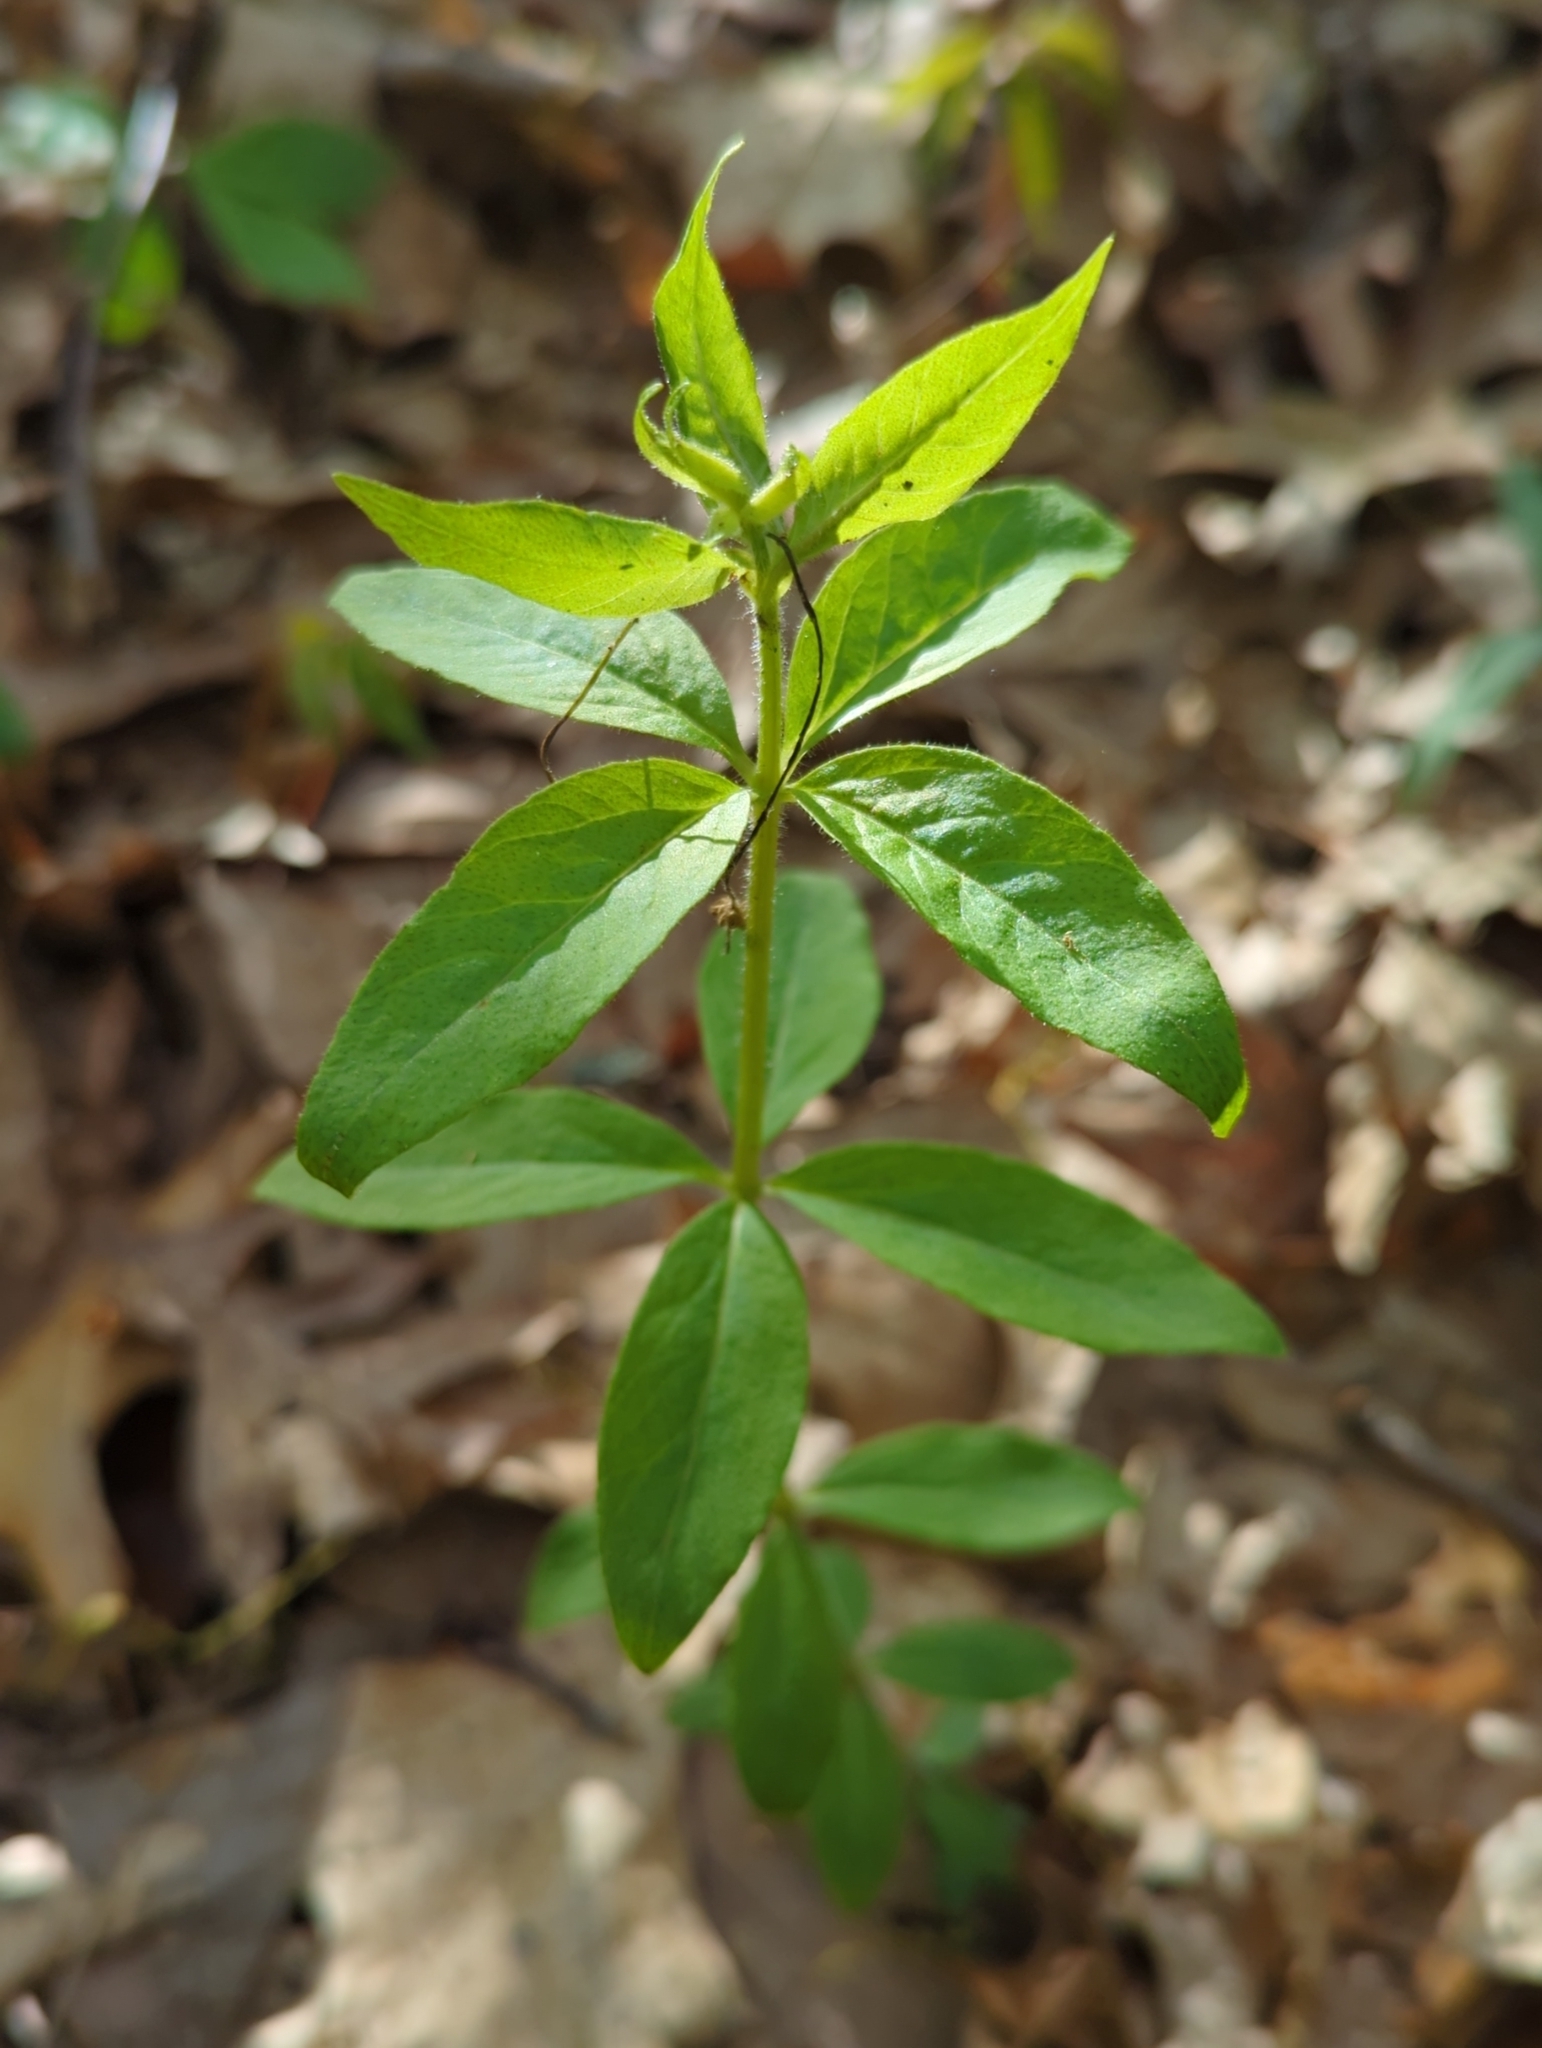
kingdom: Plantae
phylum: Tracheophyta
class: Magnoliopsida
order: Ericales
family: Primulaceae
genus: Lysimachia
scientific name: Lysimachia quadrifolia
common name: Whorled loosestrife
